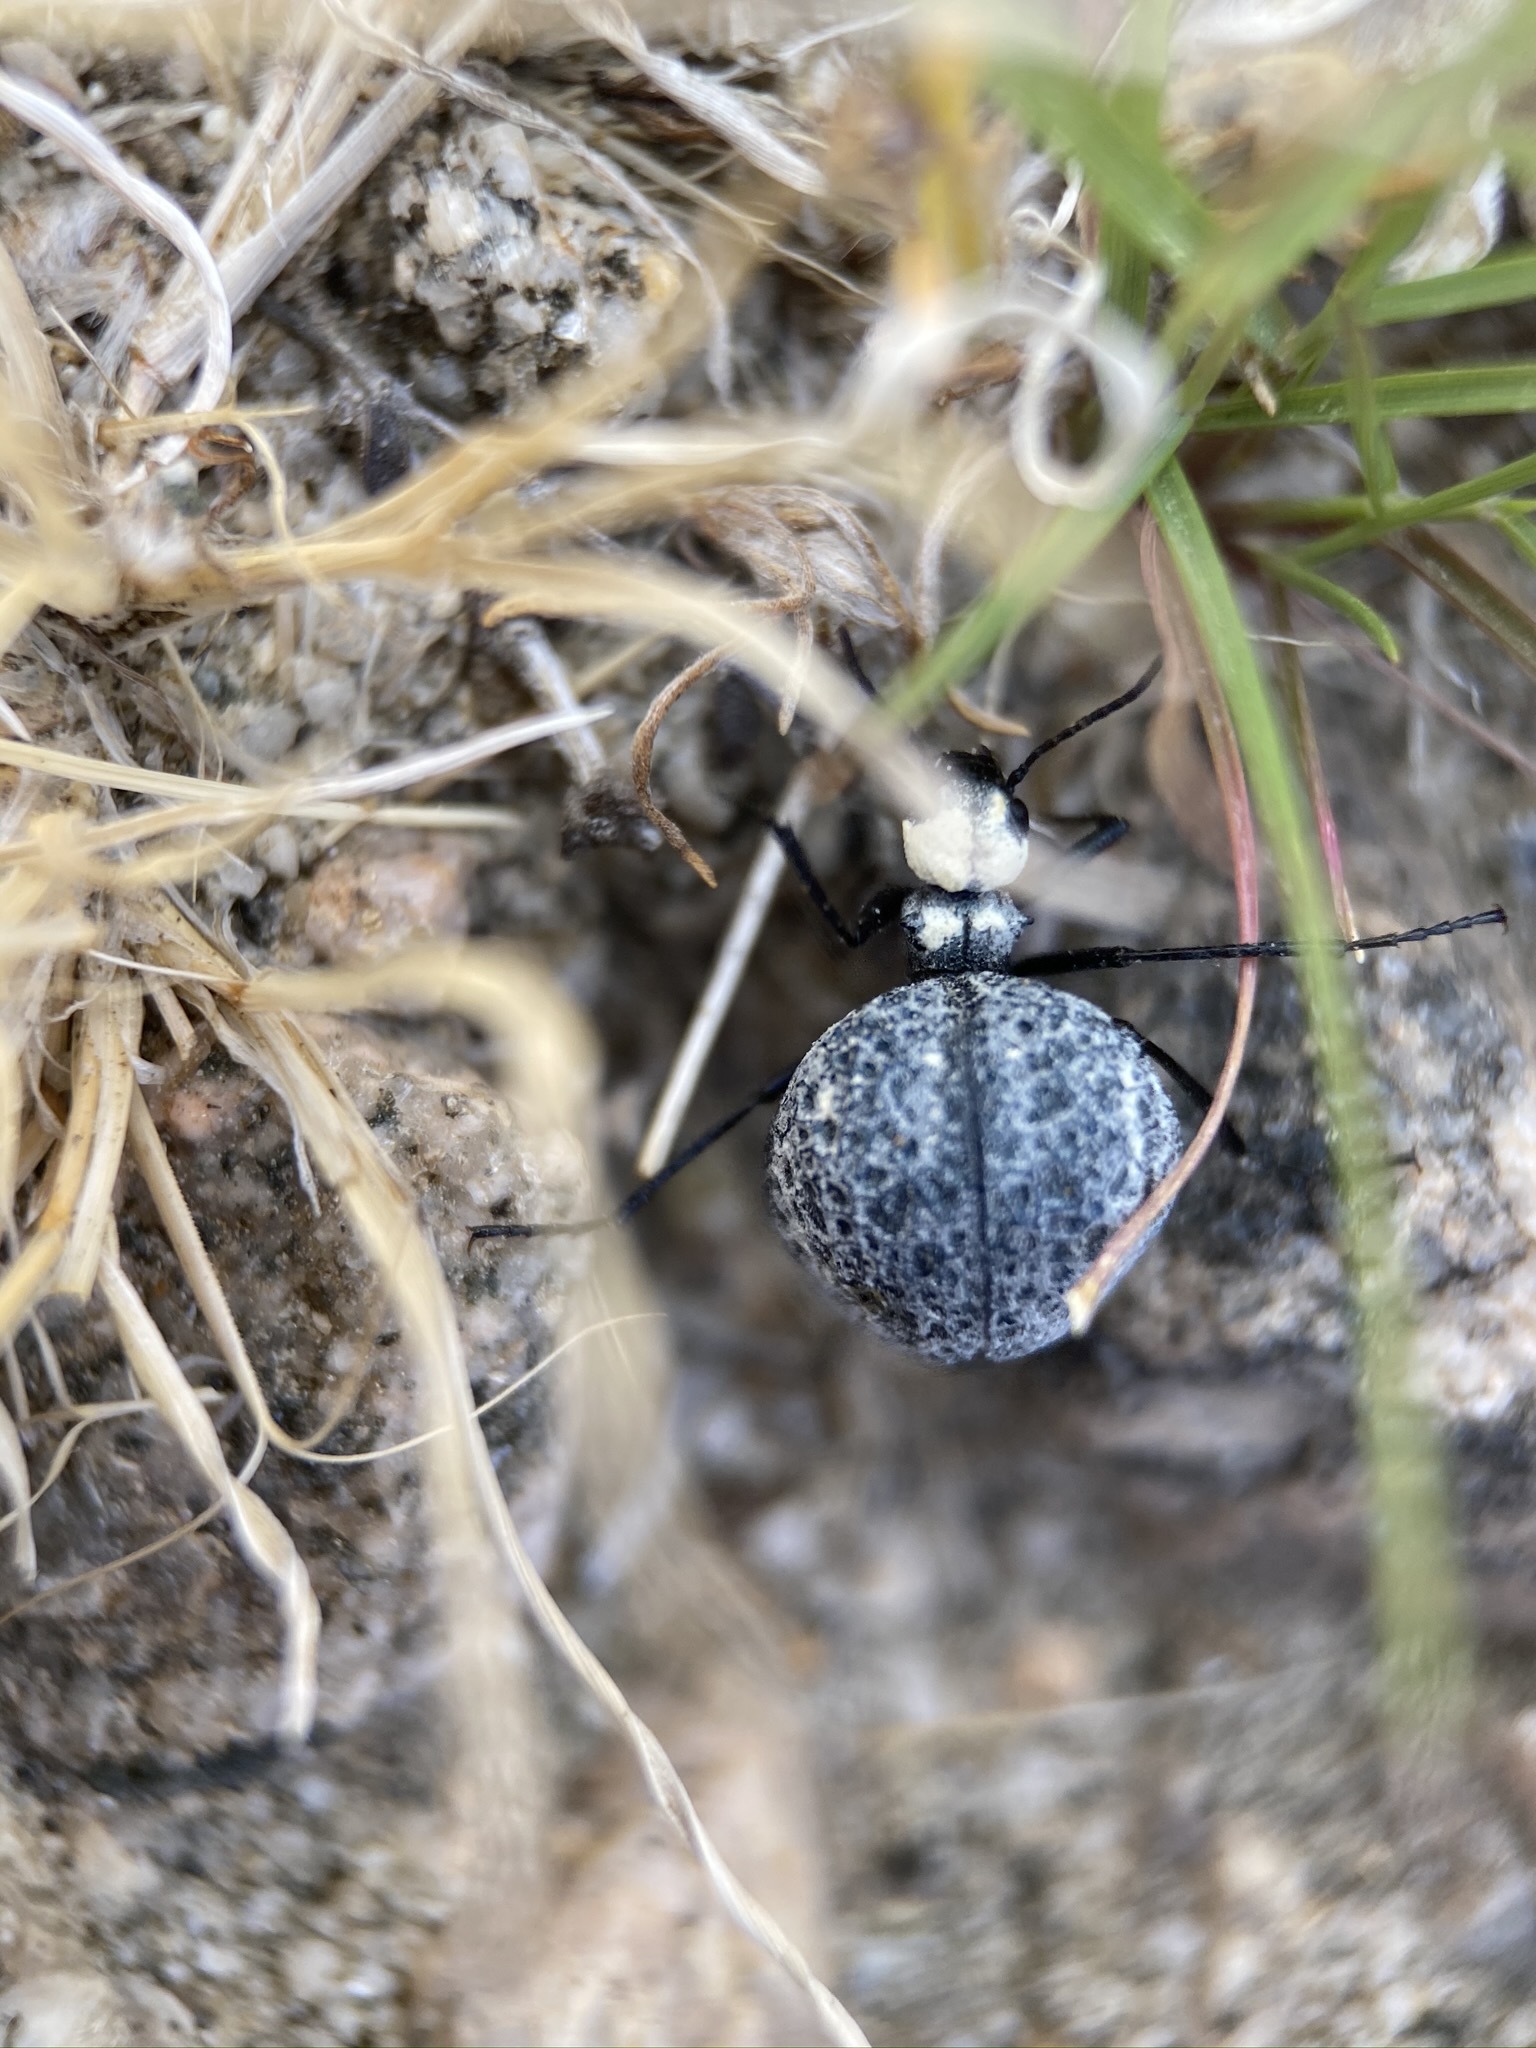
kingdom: Animalia
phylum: Arthropoda
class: Insecta
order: Coleoptera
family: Meloidae
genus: Cysteodemus
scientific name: Cysteodemus armatus
